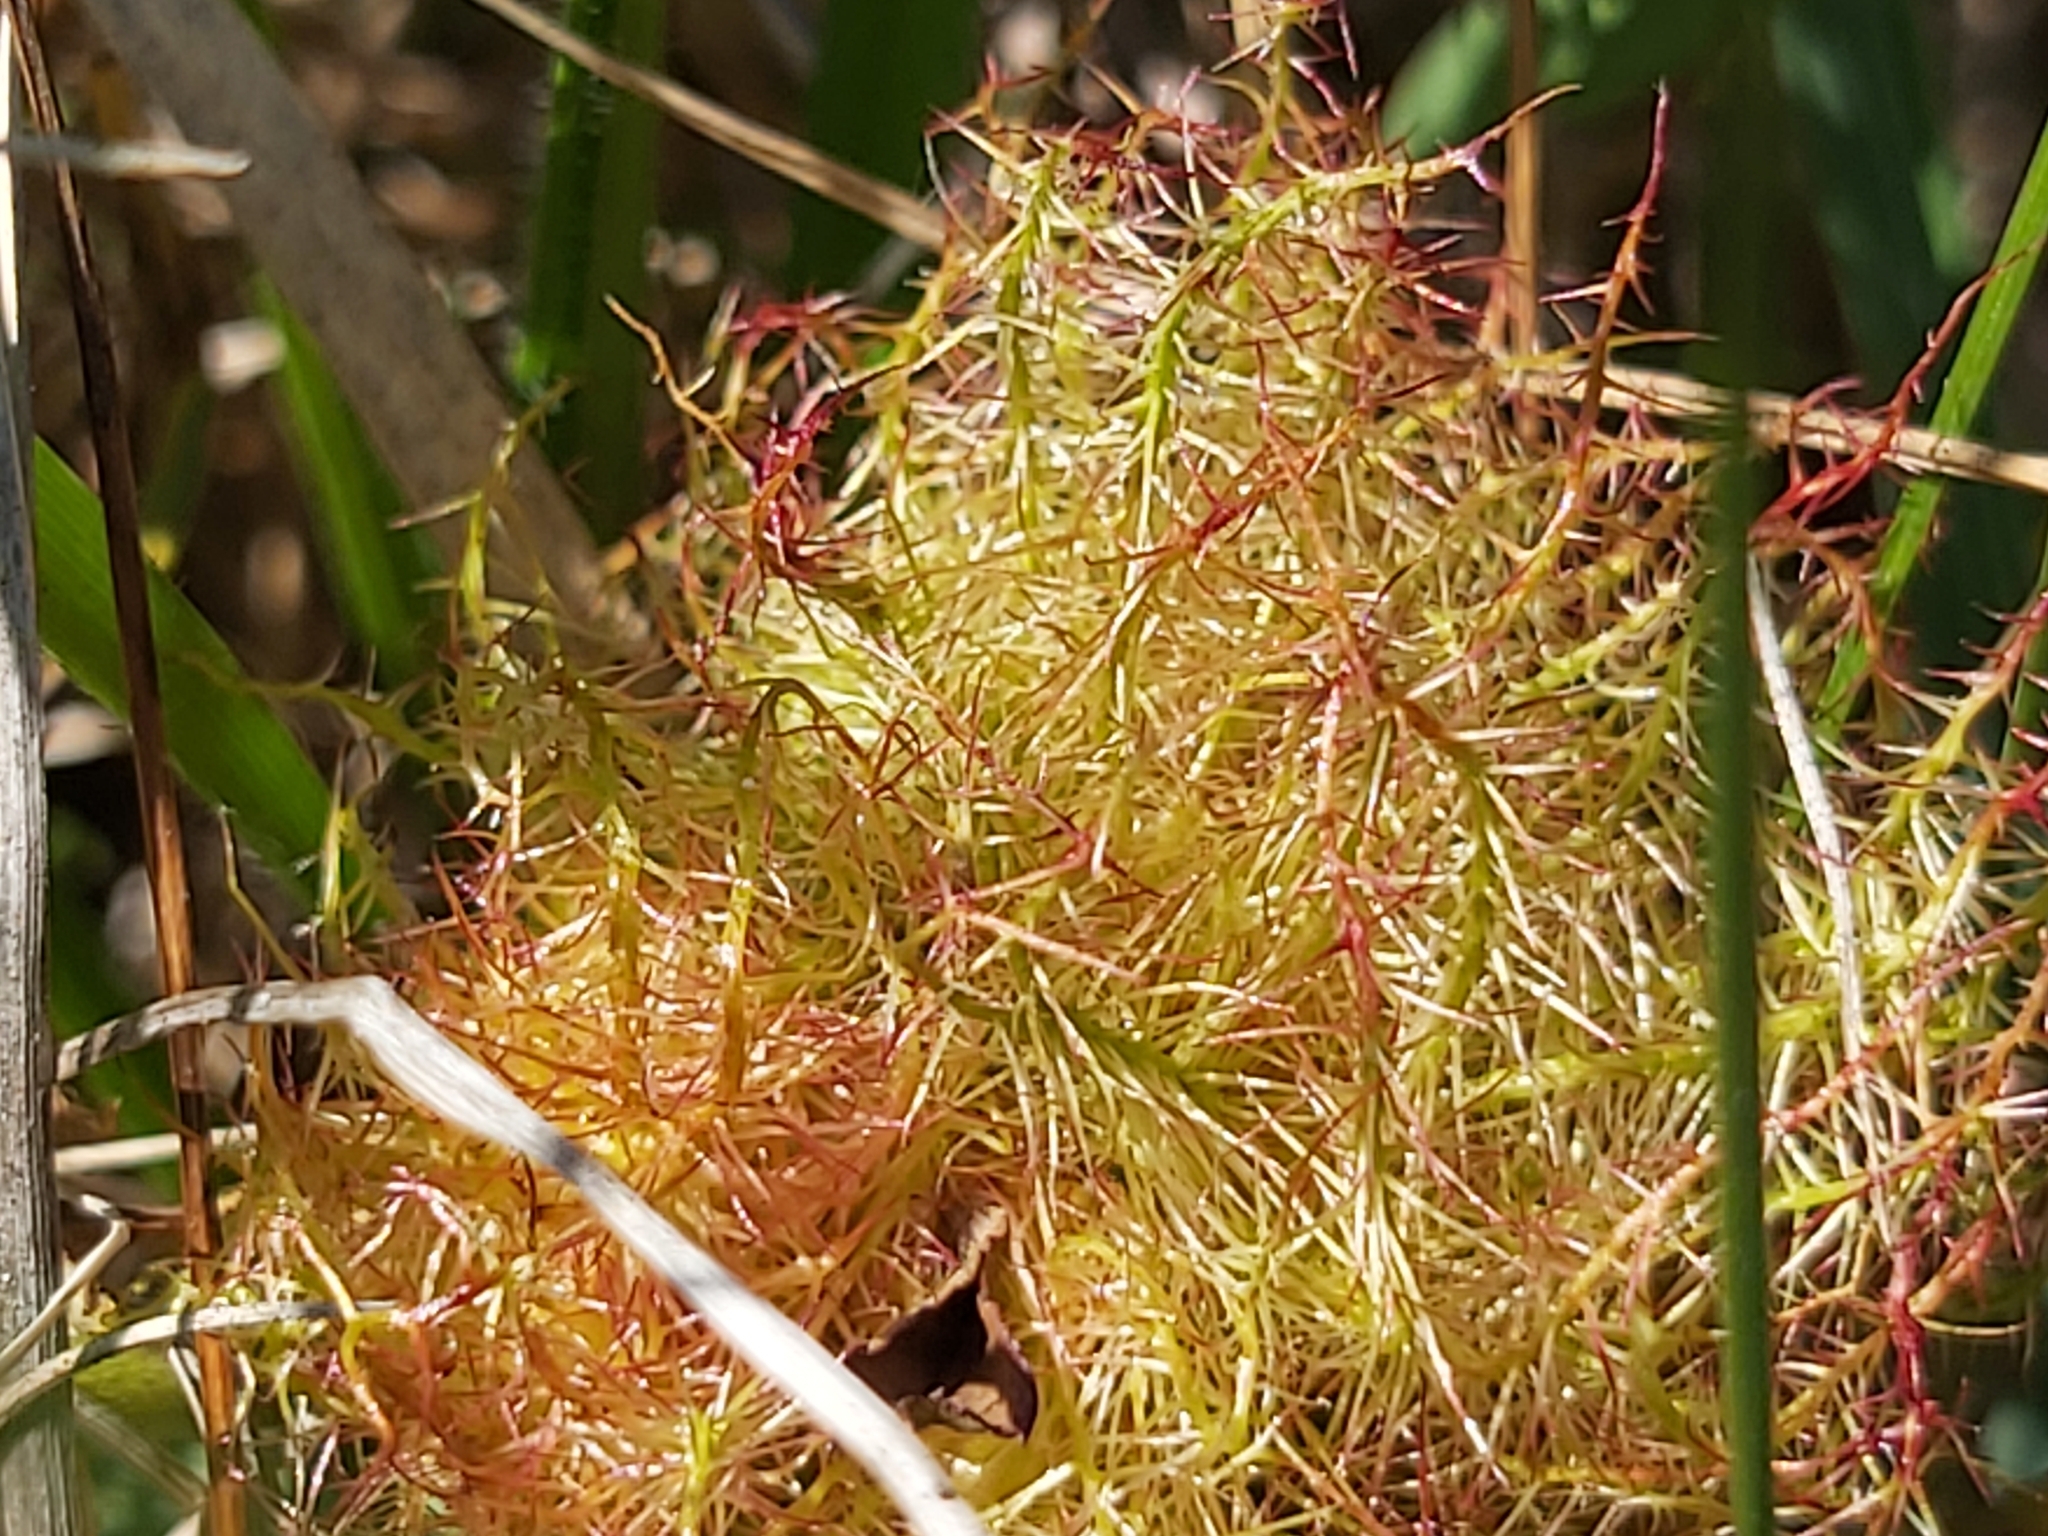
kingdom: Animalia
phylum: Arthropoda
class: Insecta
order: Hymenoptera
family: Cynipidae
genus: Diplolepis
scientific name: Diplolepis rosae
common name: Bedeguar gall
